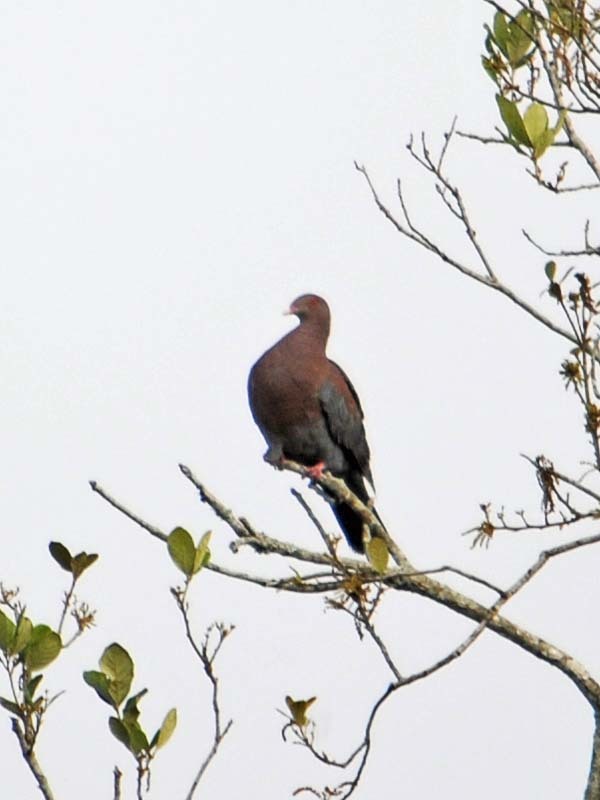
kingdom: Animalia
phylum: Chordata
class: Aves
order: Columbiformes
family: Columbidae
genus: Patagioenas
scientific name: Patagioenas flavirostris
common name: Red-billed pigeon
